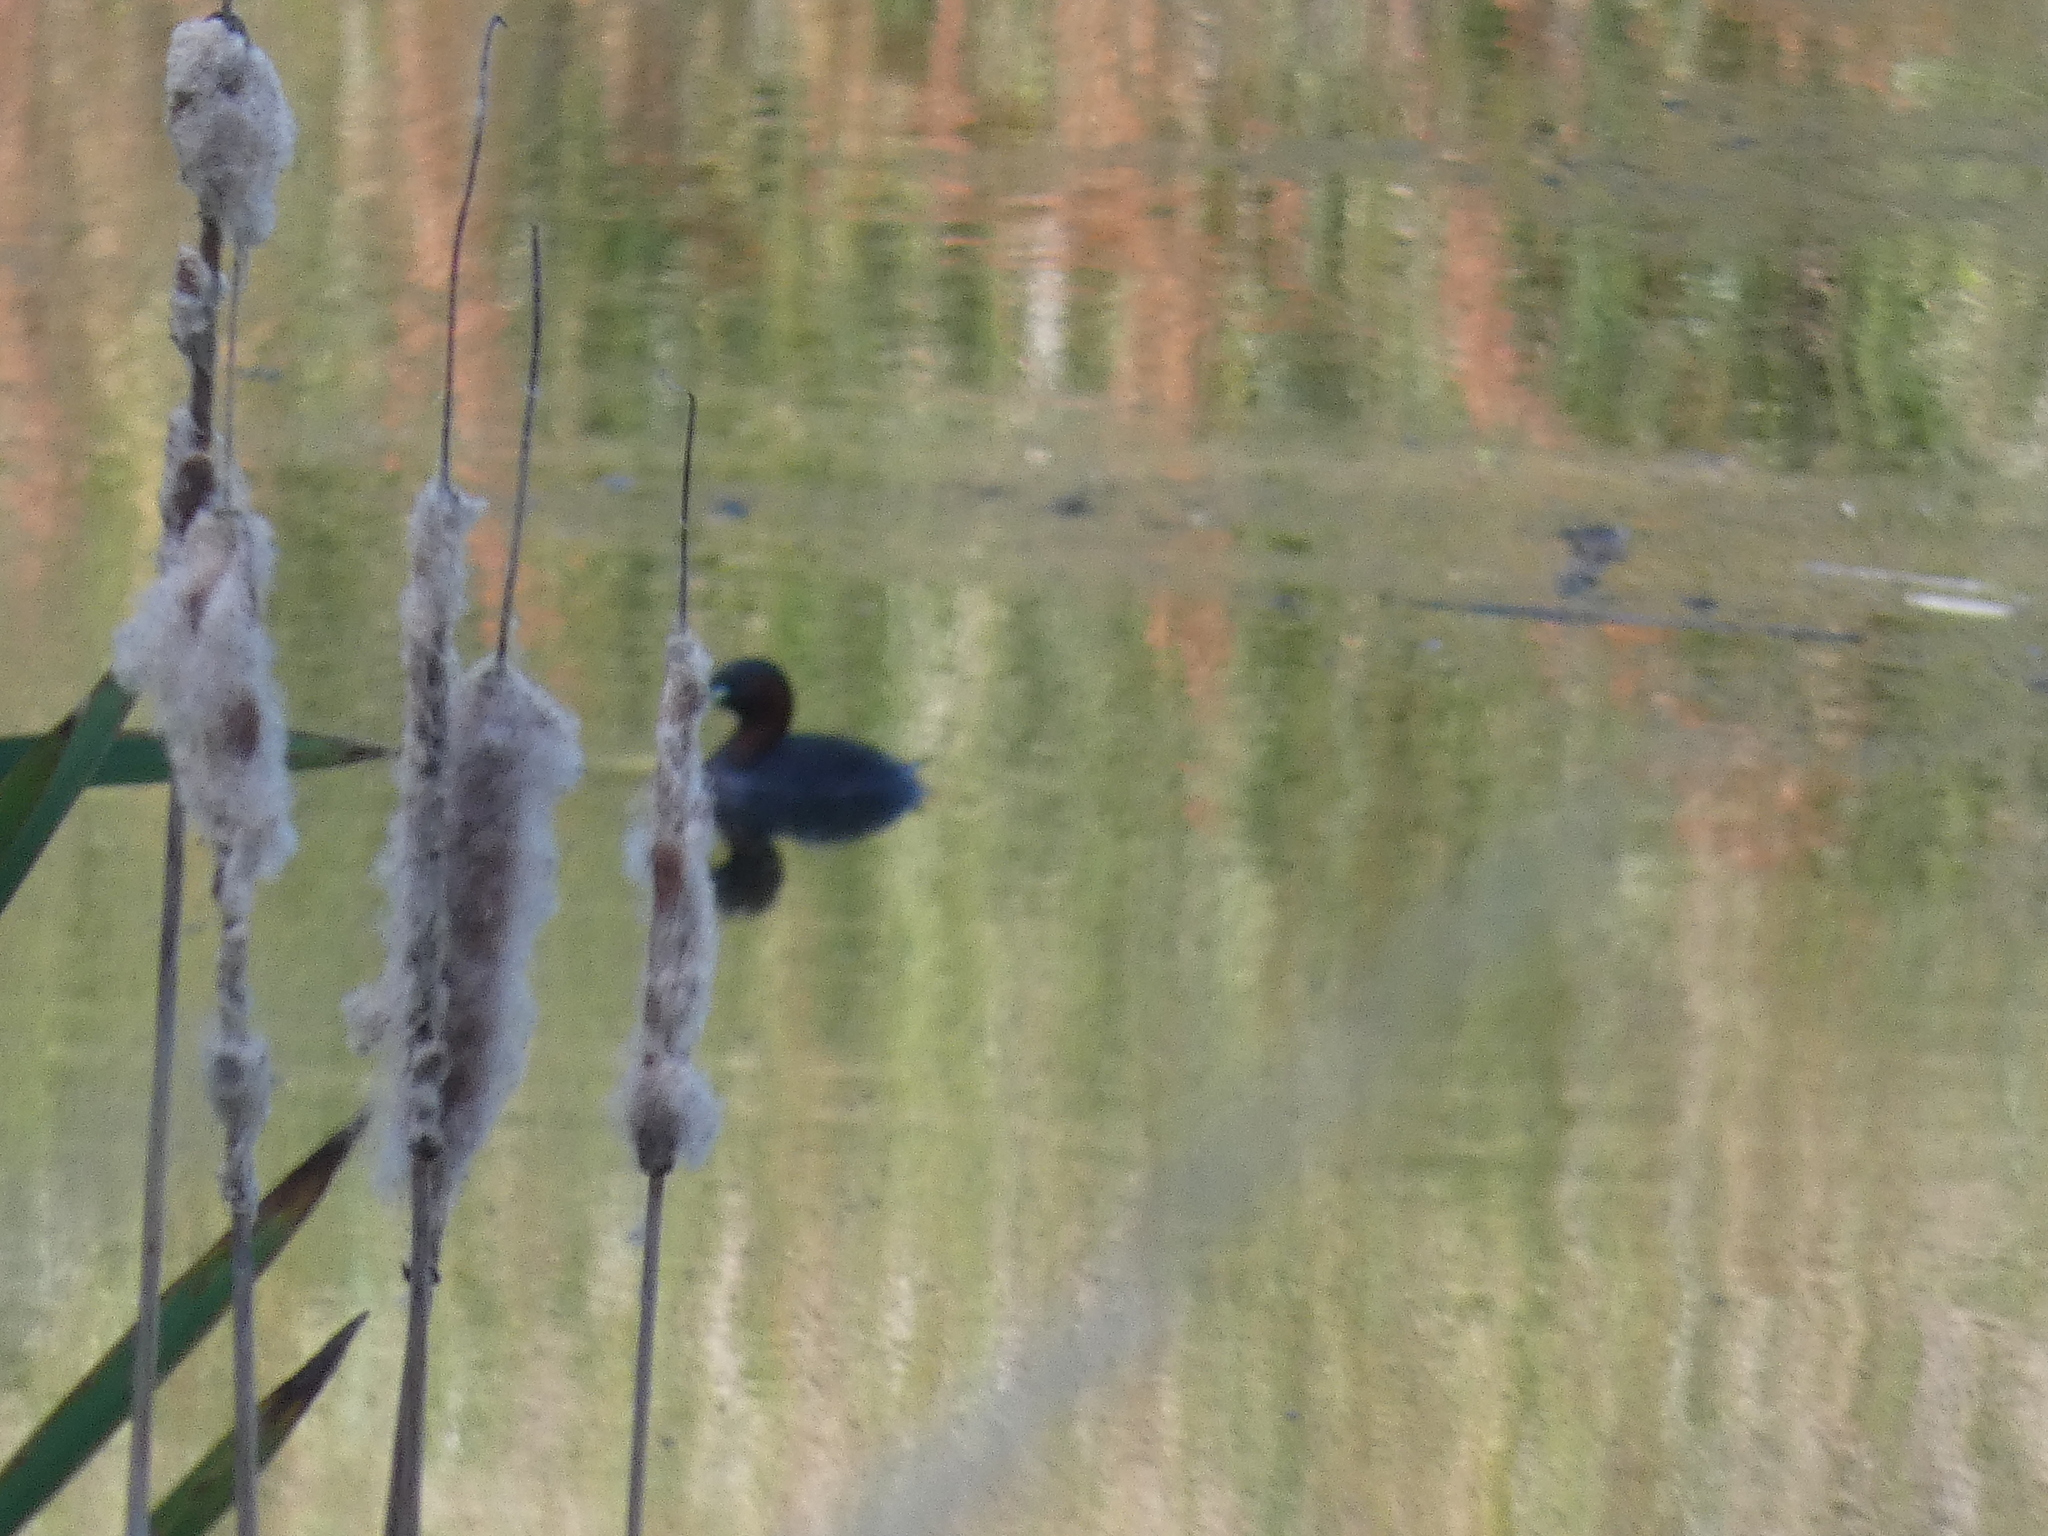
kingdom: Animalia
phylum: Chordata
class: Aves
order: Podicipediformes
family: Podicipedidae
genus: Tachybaptus
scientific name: Tachybaptus ruficollis
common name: Little grebe
